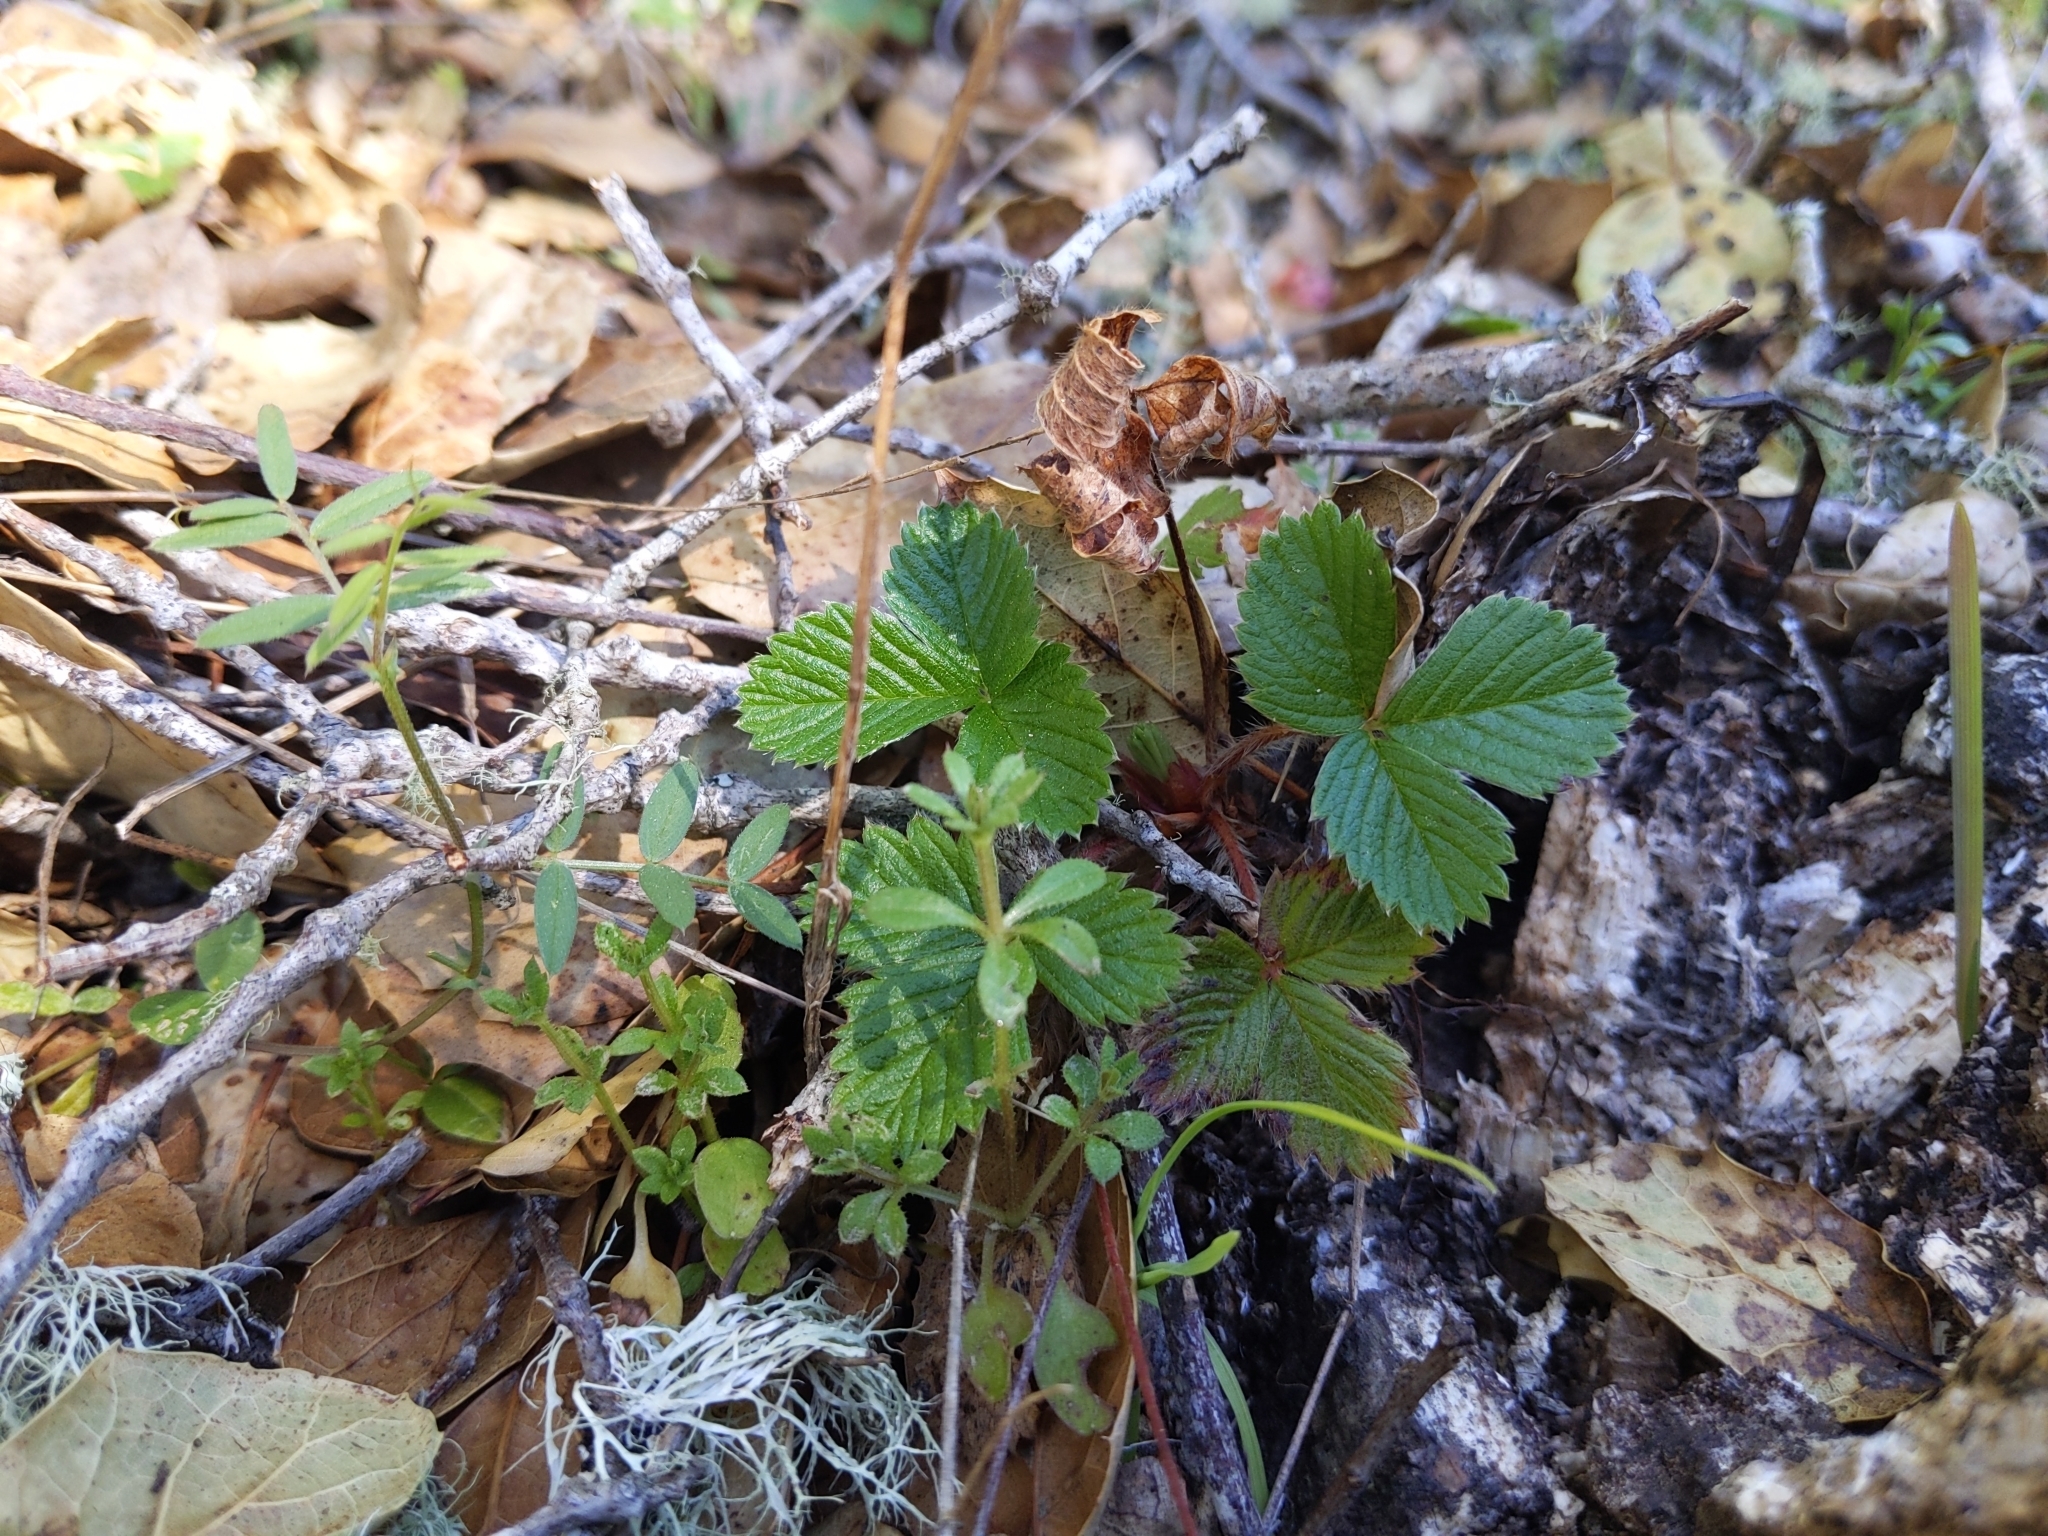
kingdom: Plantae
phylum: Tracheophyta
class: Magnoliopsida
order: Rosales
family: Rosaceae
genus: Fragaria
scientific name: Fragaria vesca
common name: Wild strawberry
